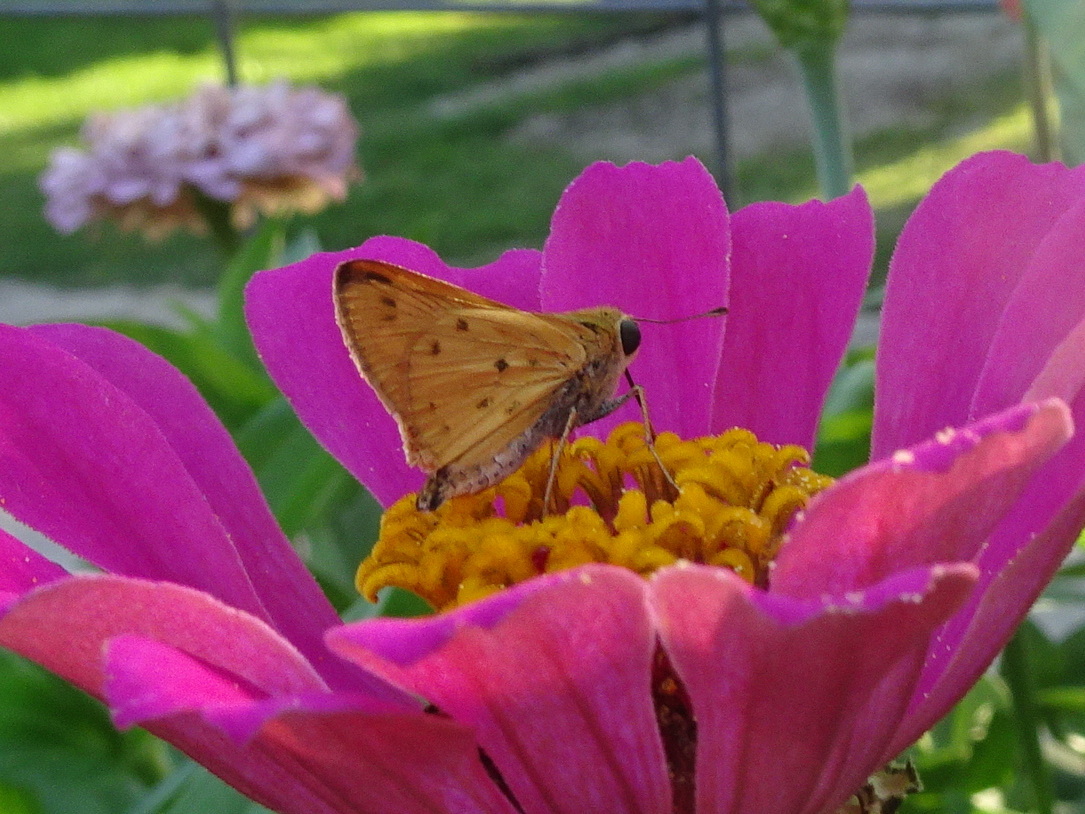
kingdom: Animalia
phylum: Arthropoda
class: Insecta
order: Lepidoptera
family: Hesperiidae
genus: Hylephila
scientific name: Hylephila phyleus
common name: Fiery skipper
